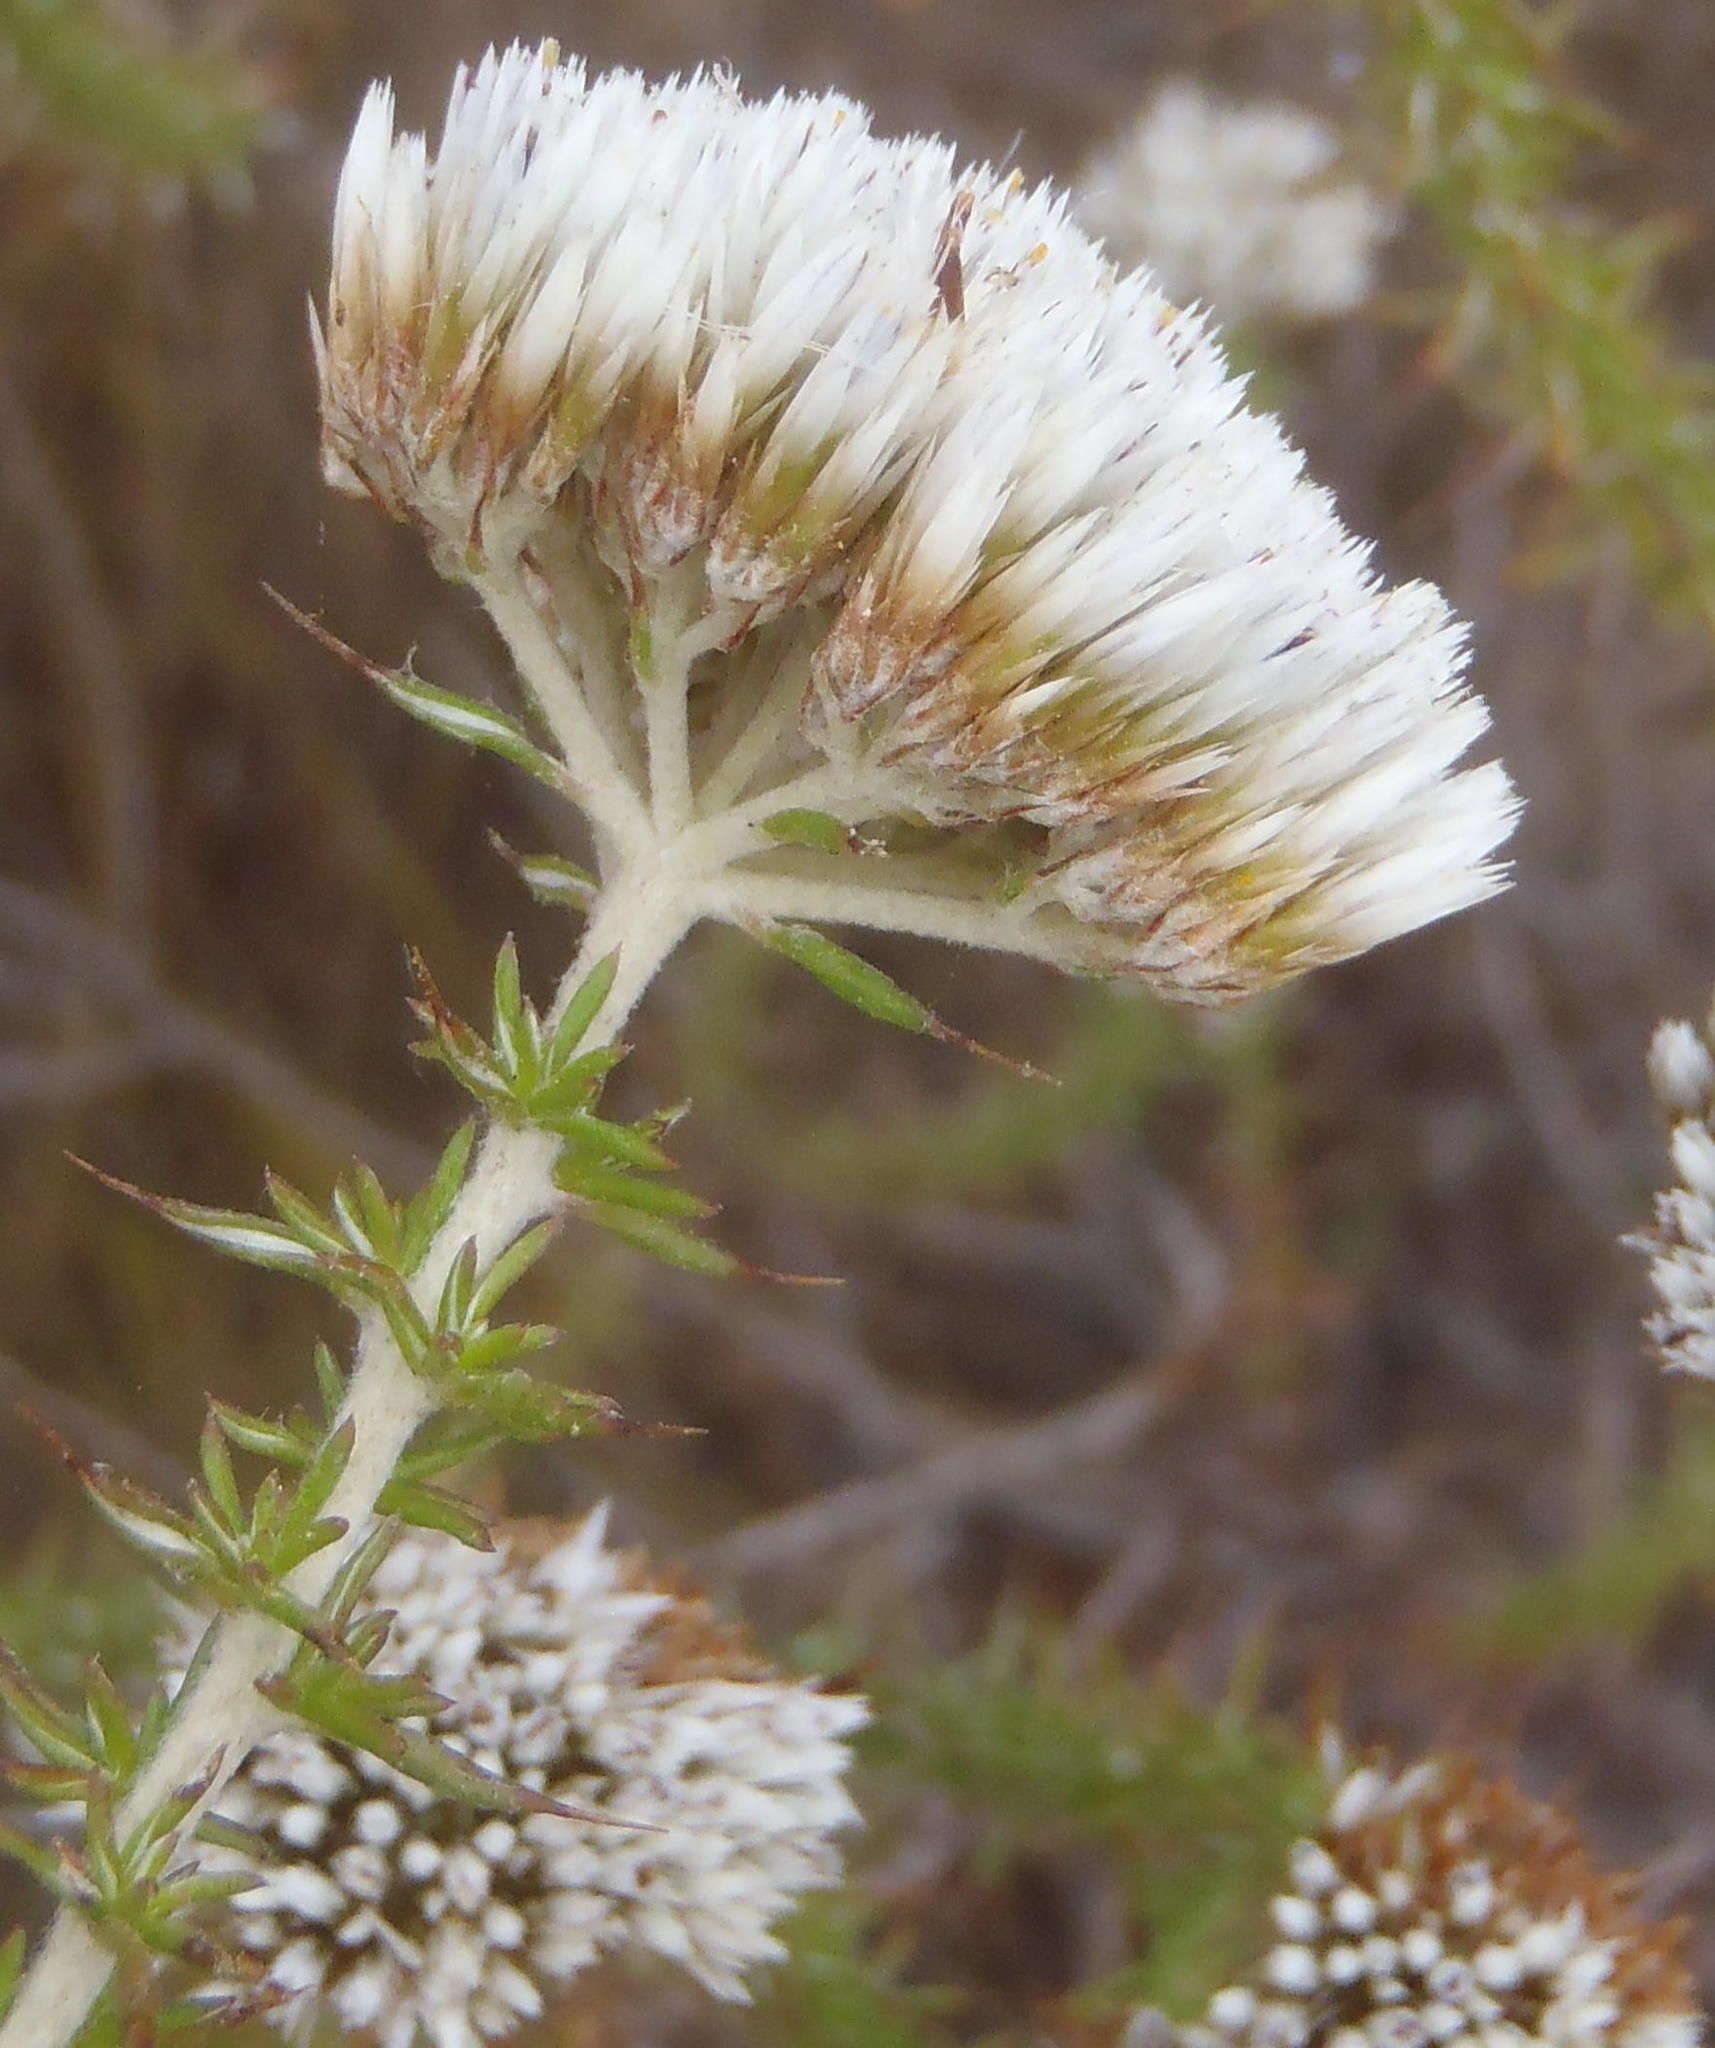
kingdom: Plantae
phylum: Tracheophyta
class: Magnoliopsida
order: Asterales
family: Asteraceae
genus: Metalasia
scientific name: Metalasia acuta
